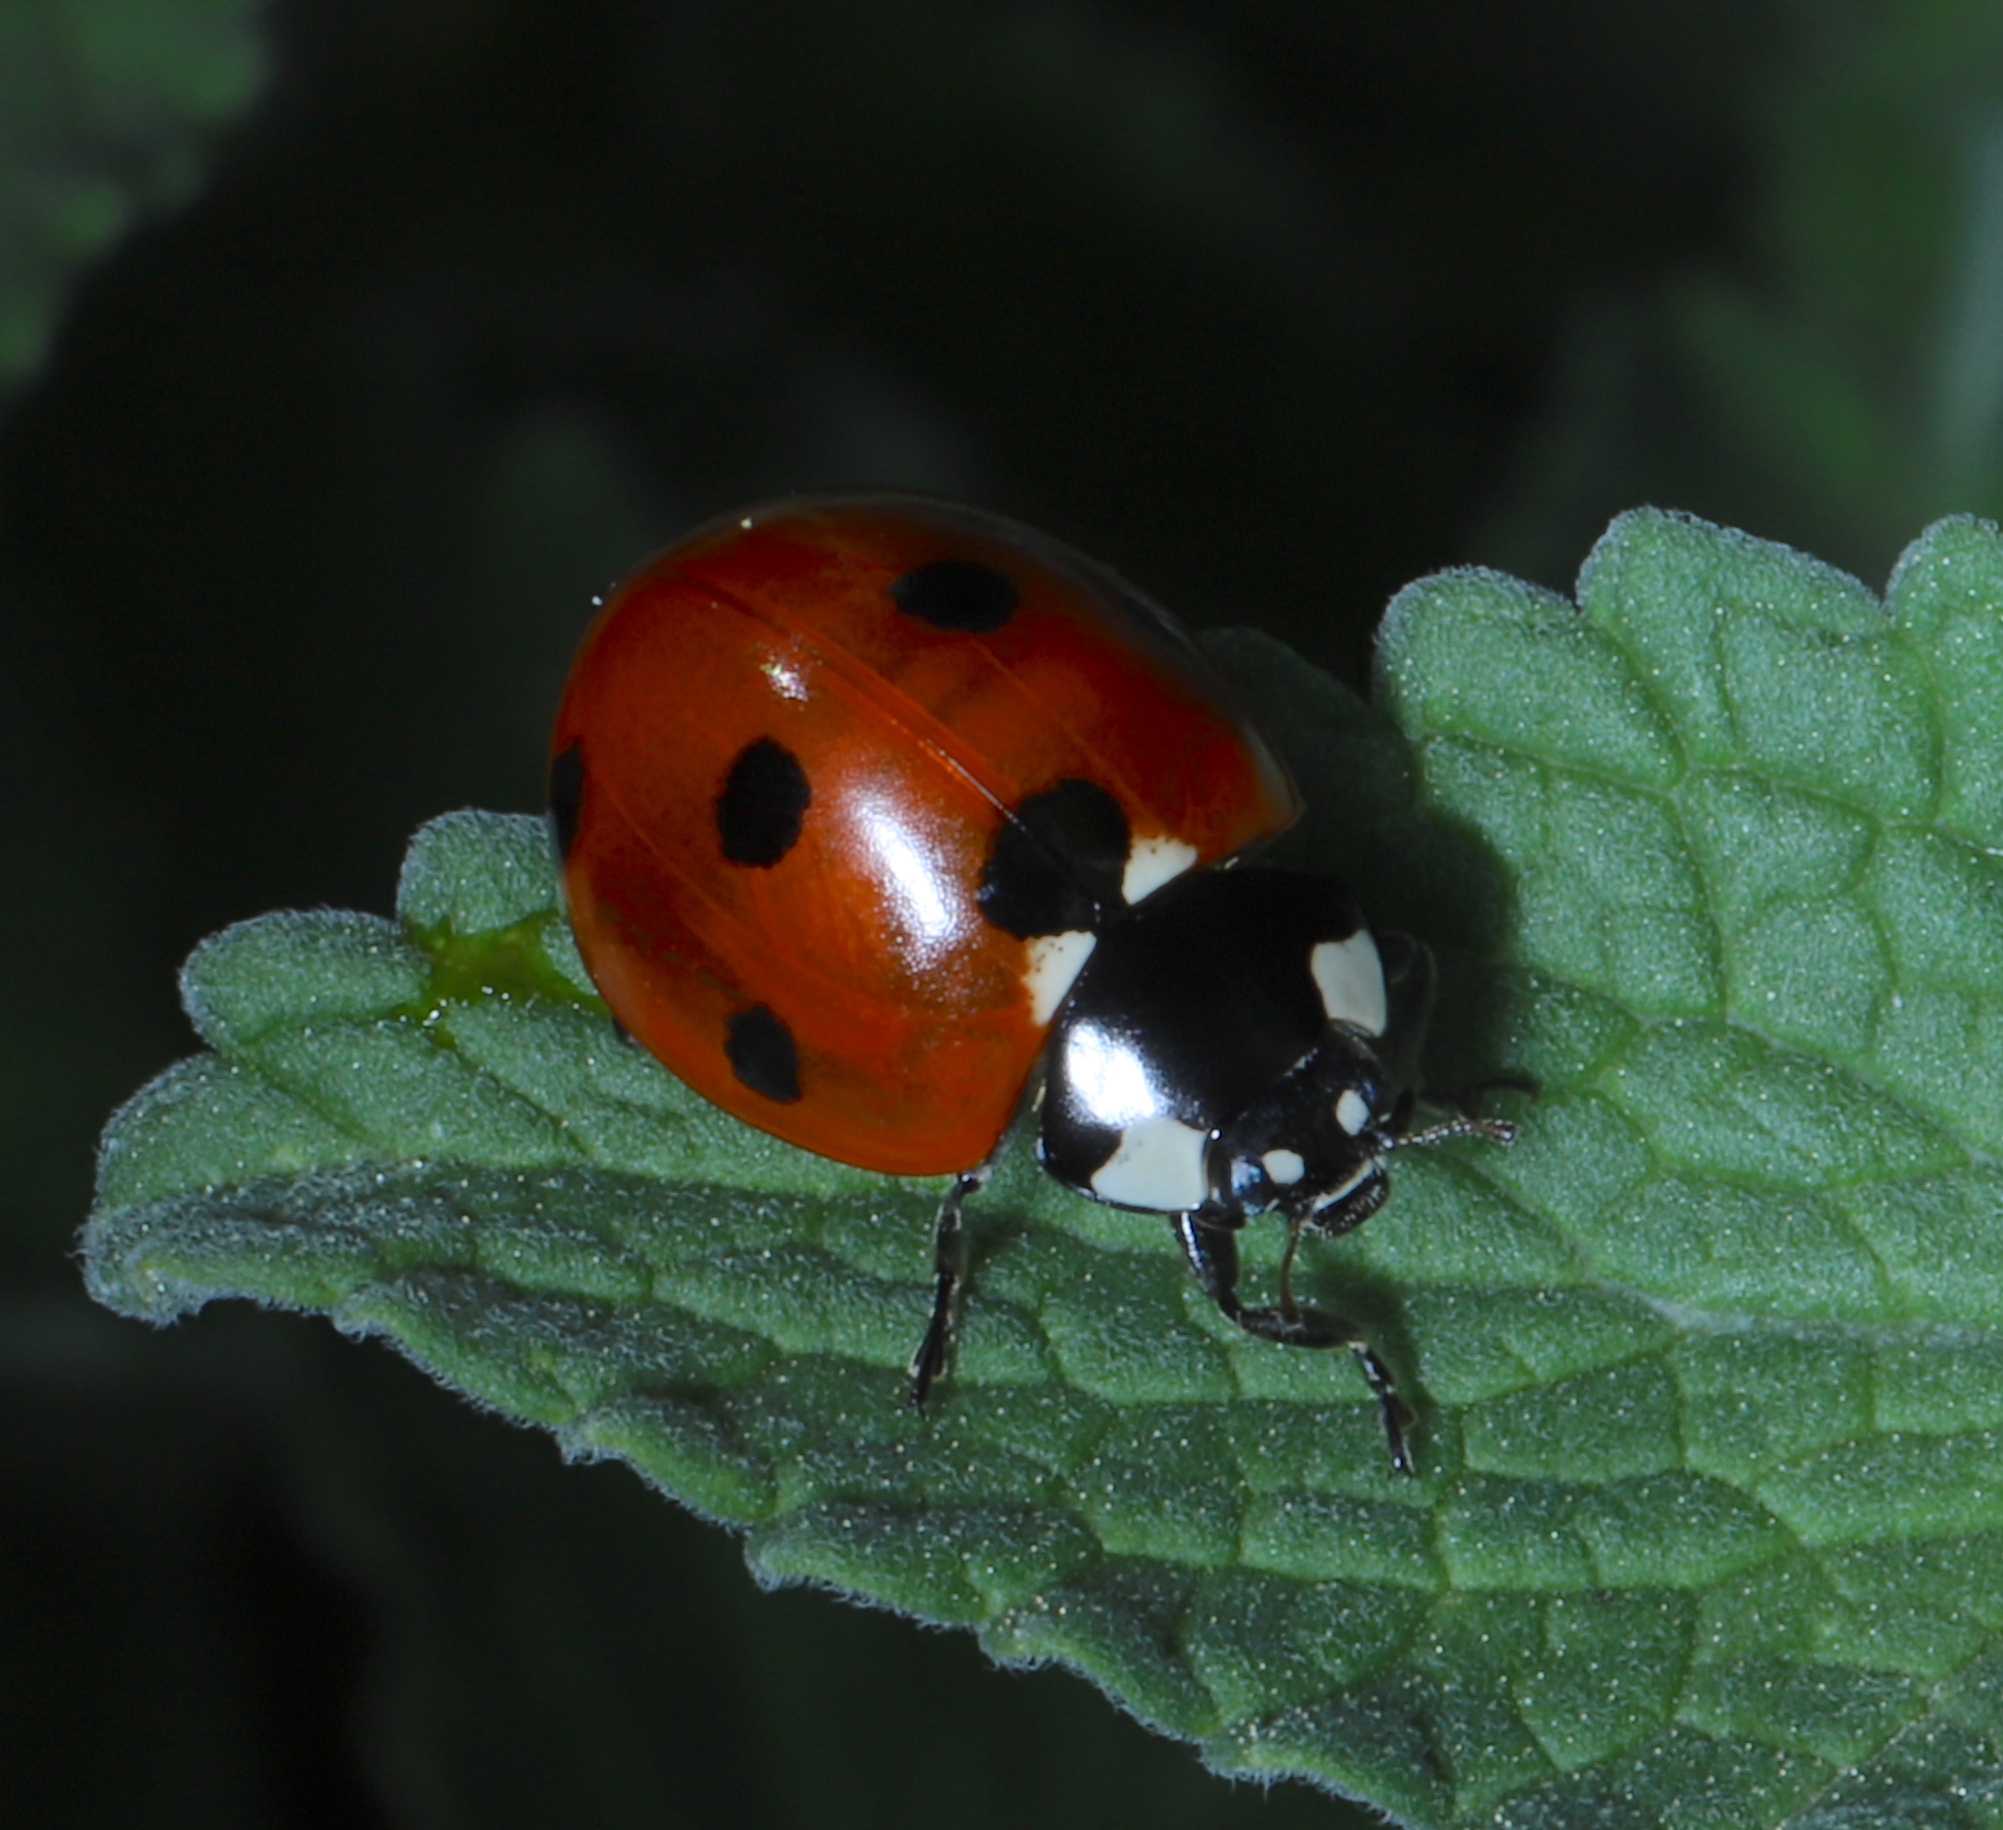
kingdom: Animalia
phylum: Arthropoda
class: Insecta
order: Coleoptera
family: Coccinellidae
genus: Coccinella
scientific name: Coccinella septempunctata
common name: Sevenspotted lady beetle
